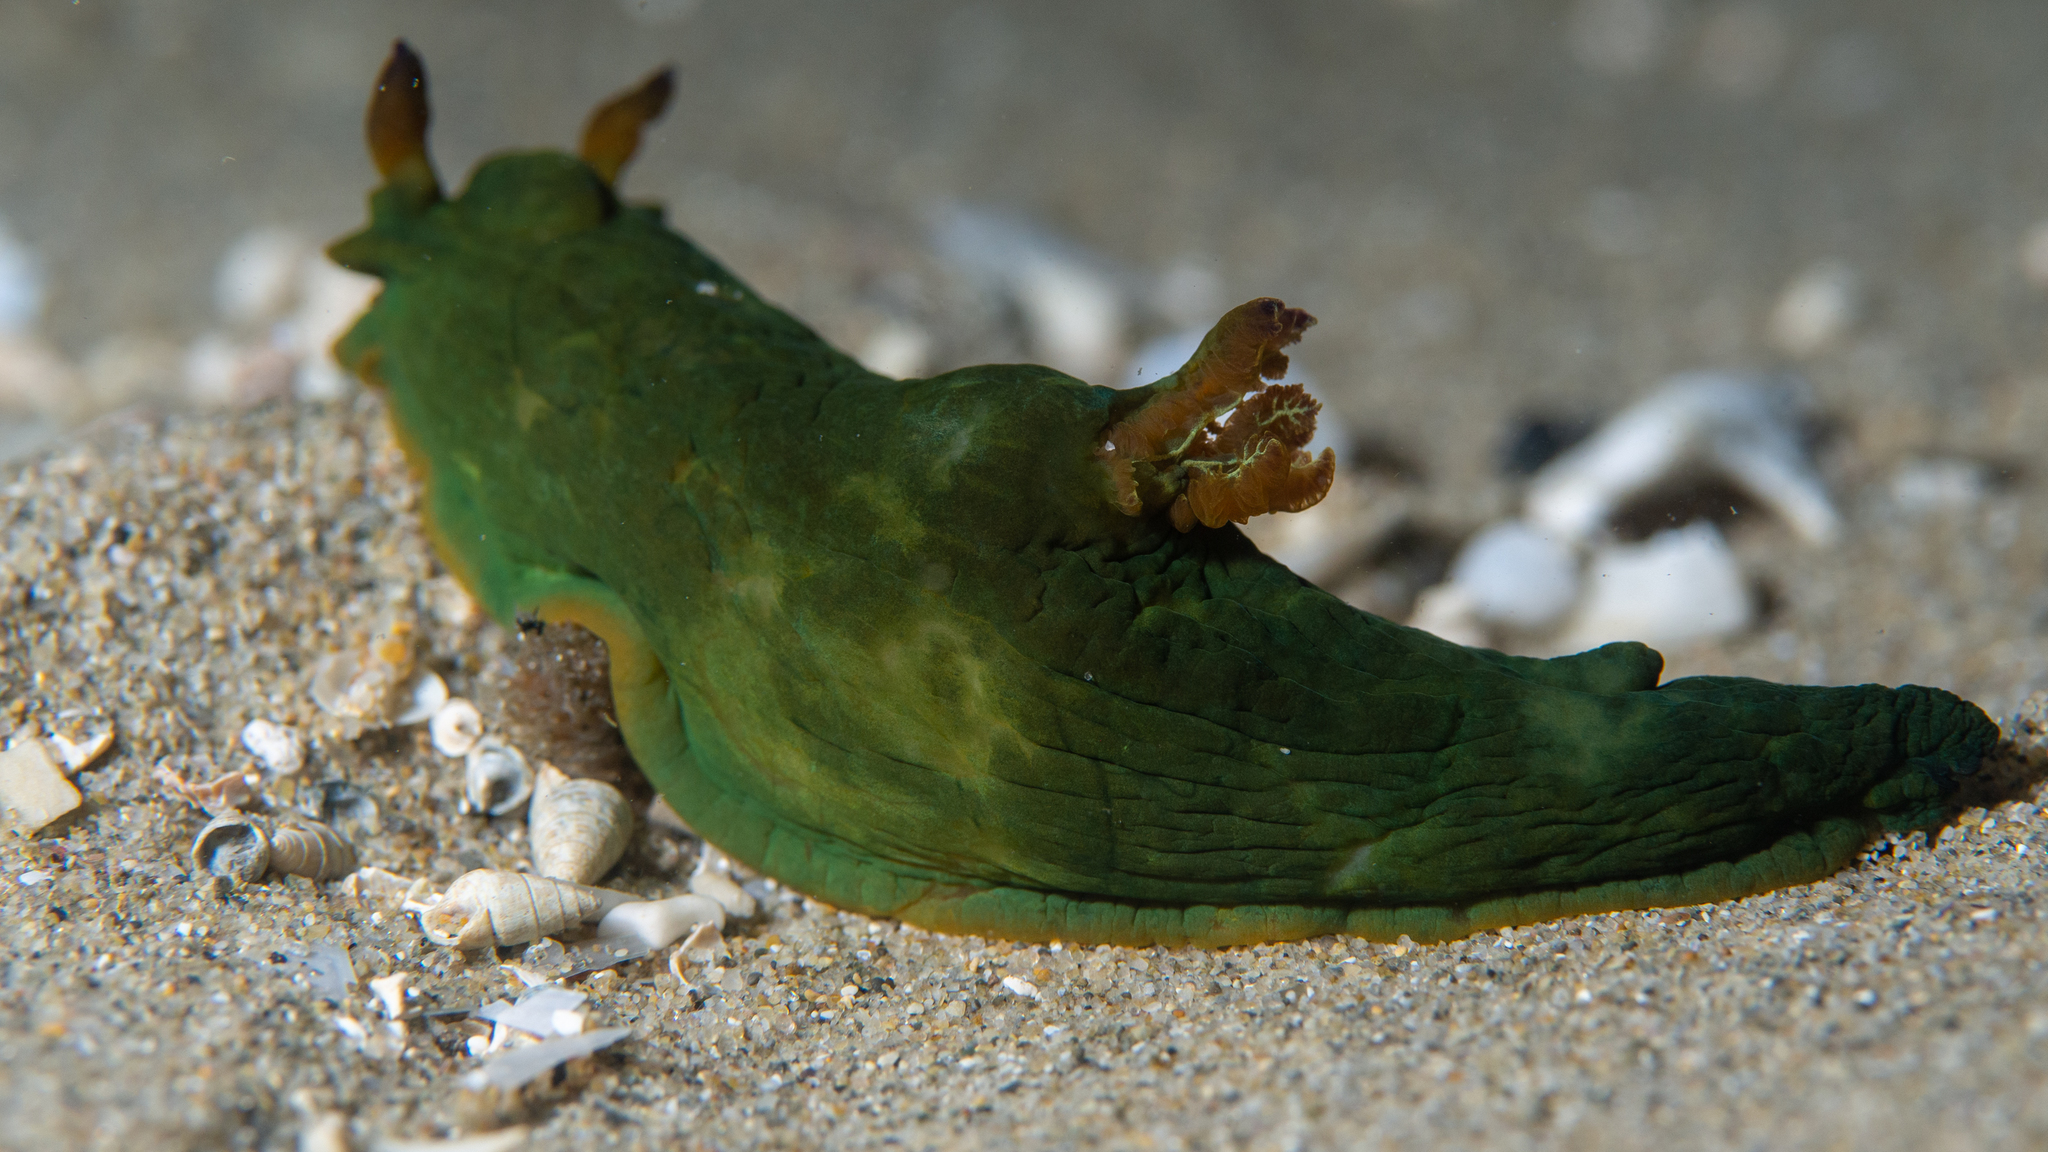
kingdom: Animalia
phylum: Mollusca
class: Gastropoda
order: Nudibranchia
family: Polyceridae
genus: Tambja
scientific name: Tambja dracomus
